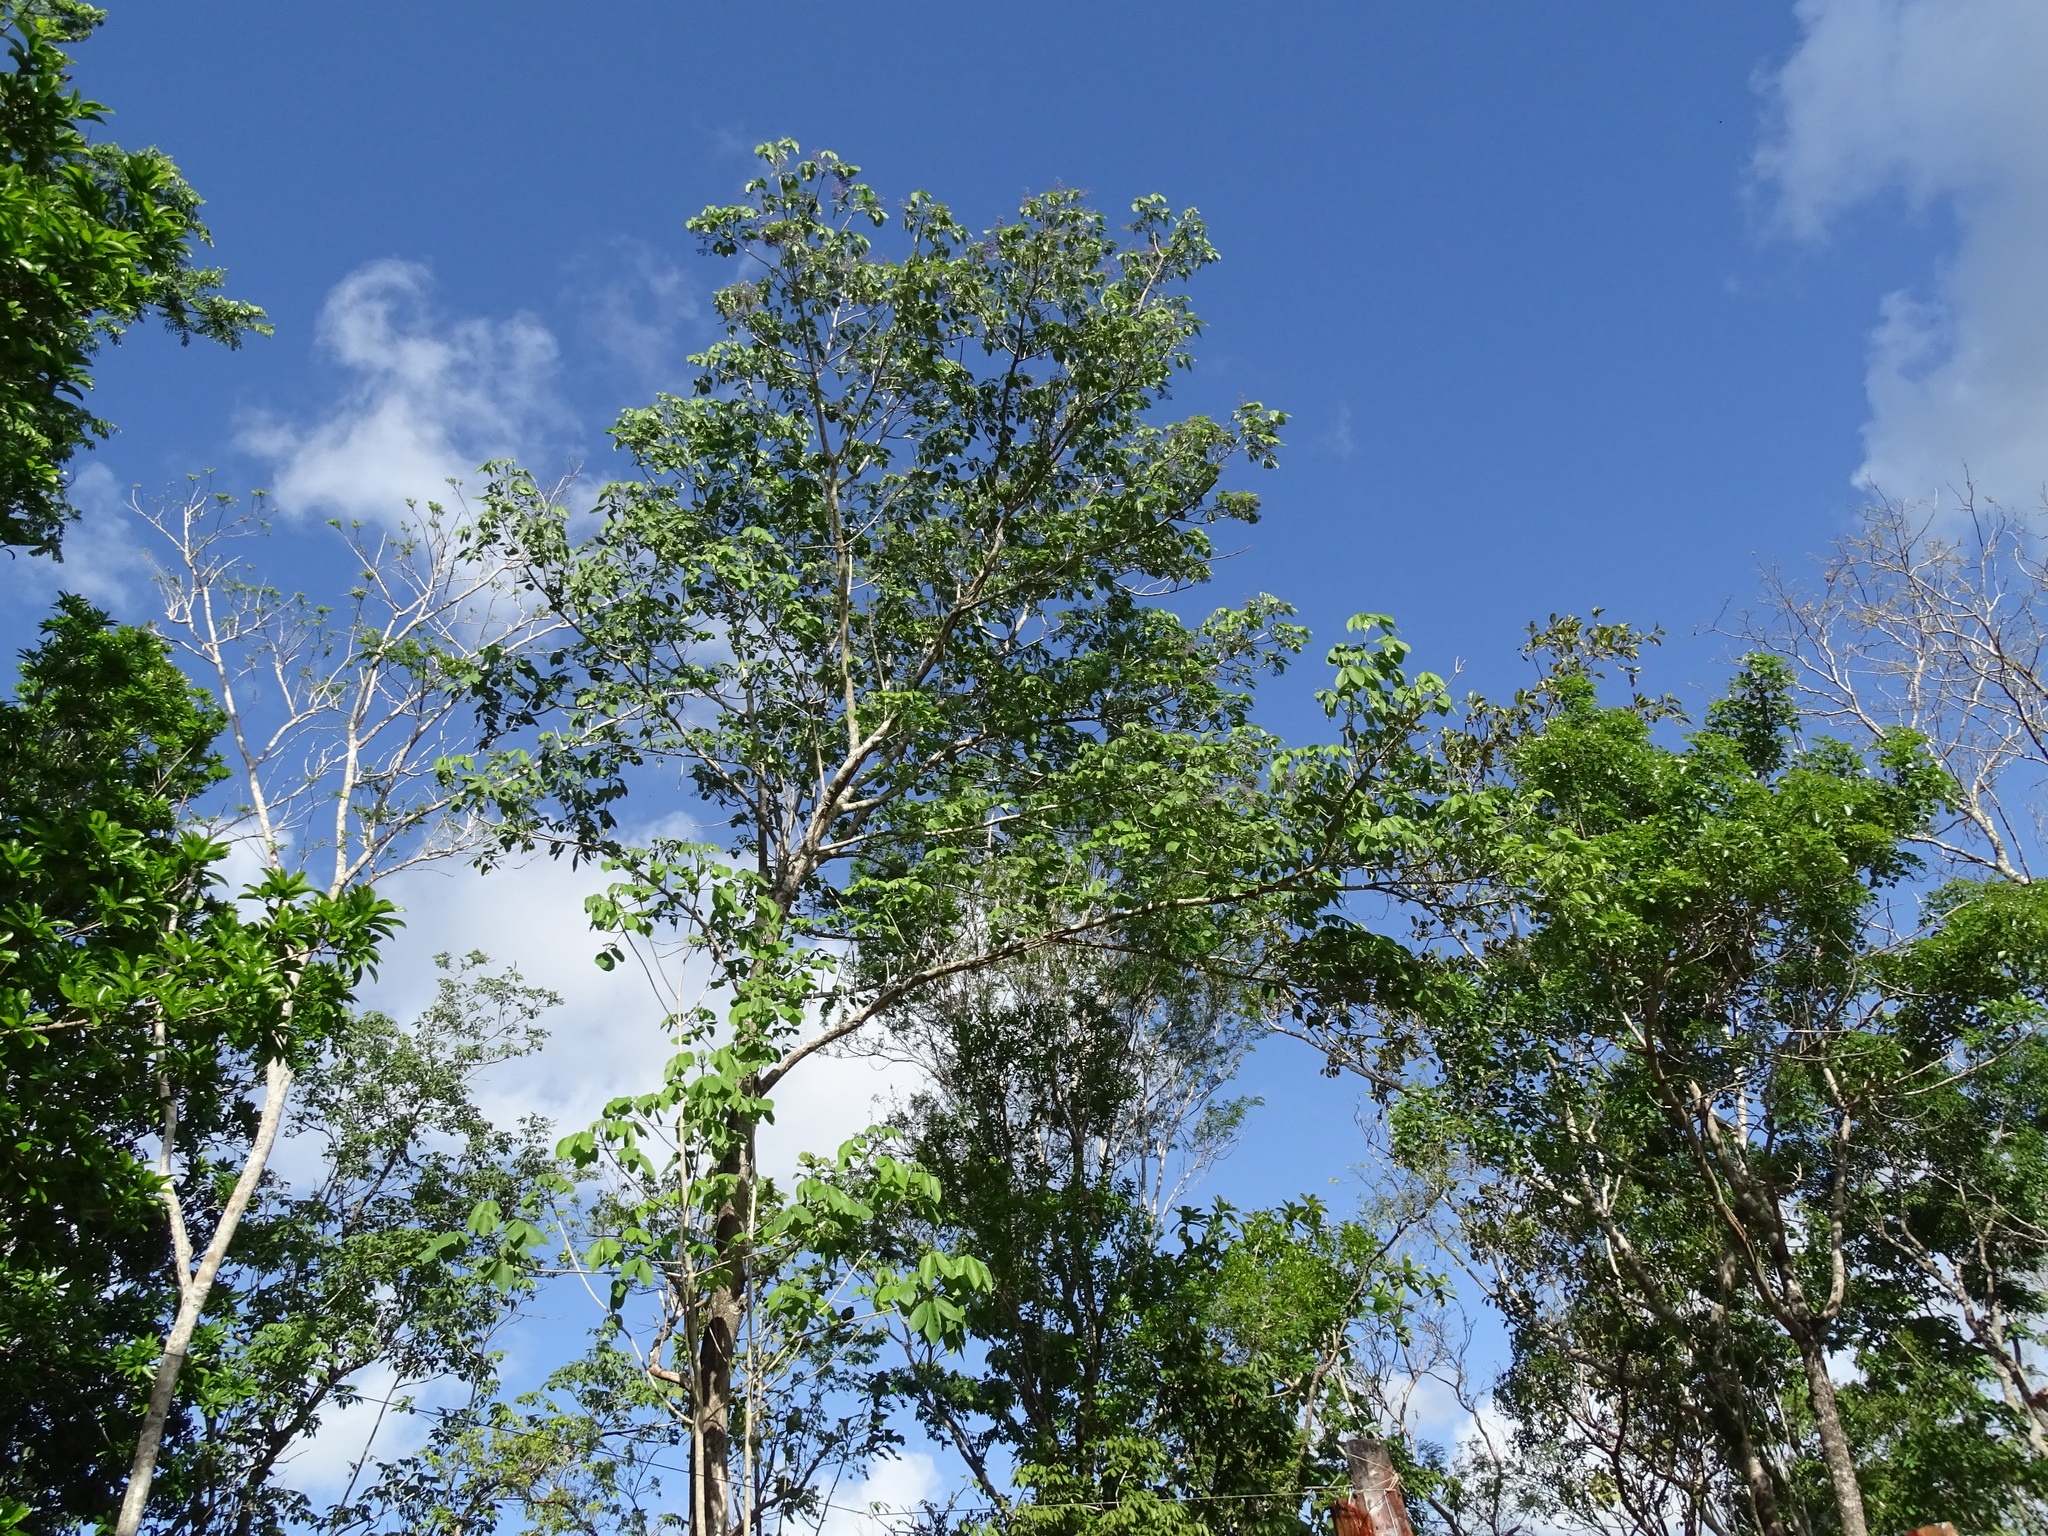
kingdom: Plantae
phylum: Tracheophyta
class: Magnoliopsida
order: Lamiales
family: Lamiaceae
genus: Vitex
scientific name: Vitex gaumeri
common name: Fiddlewood
